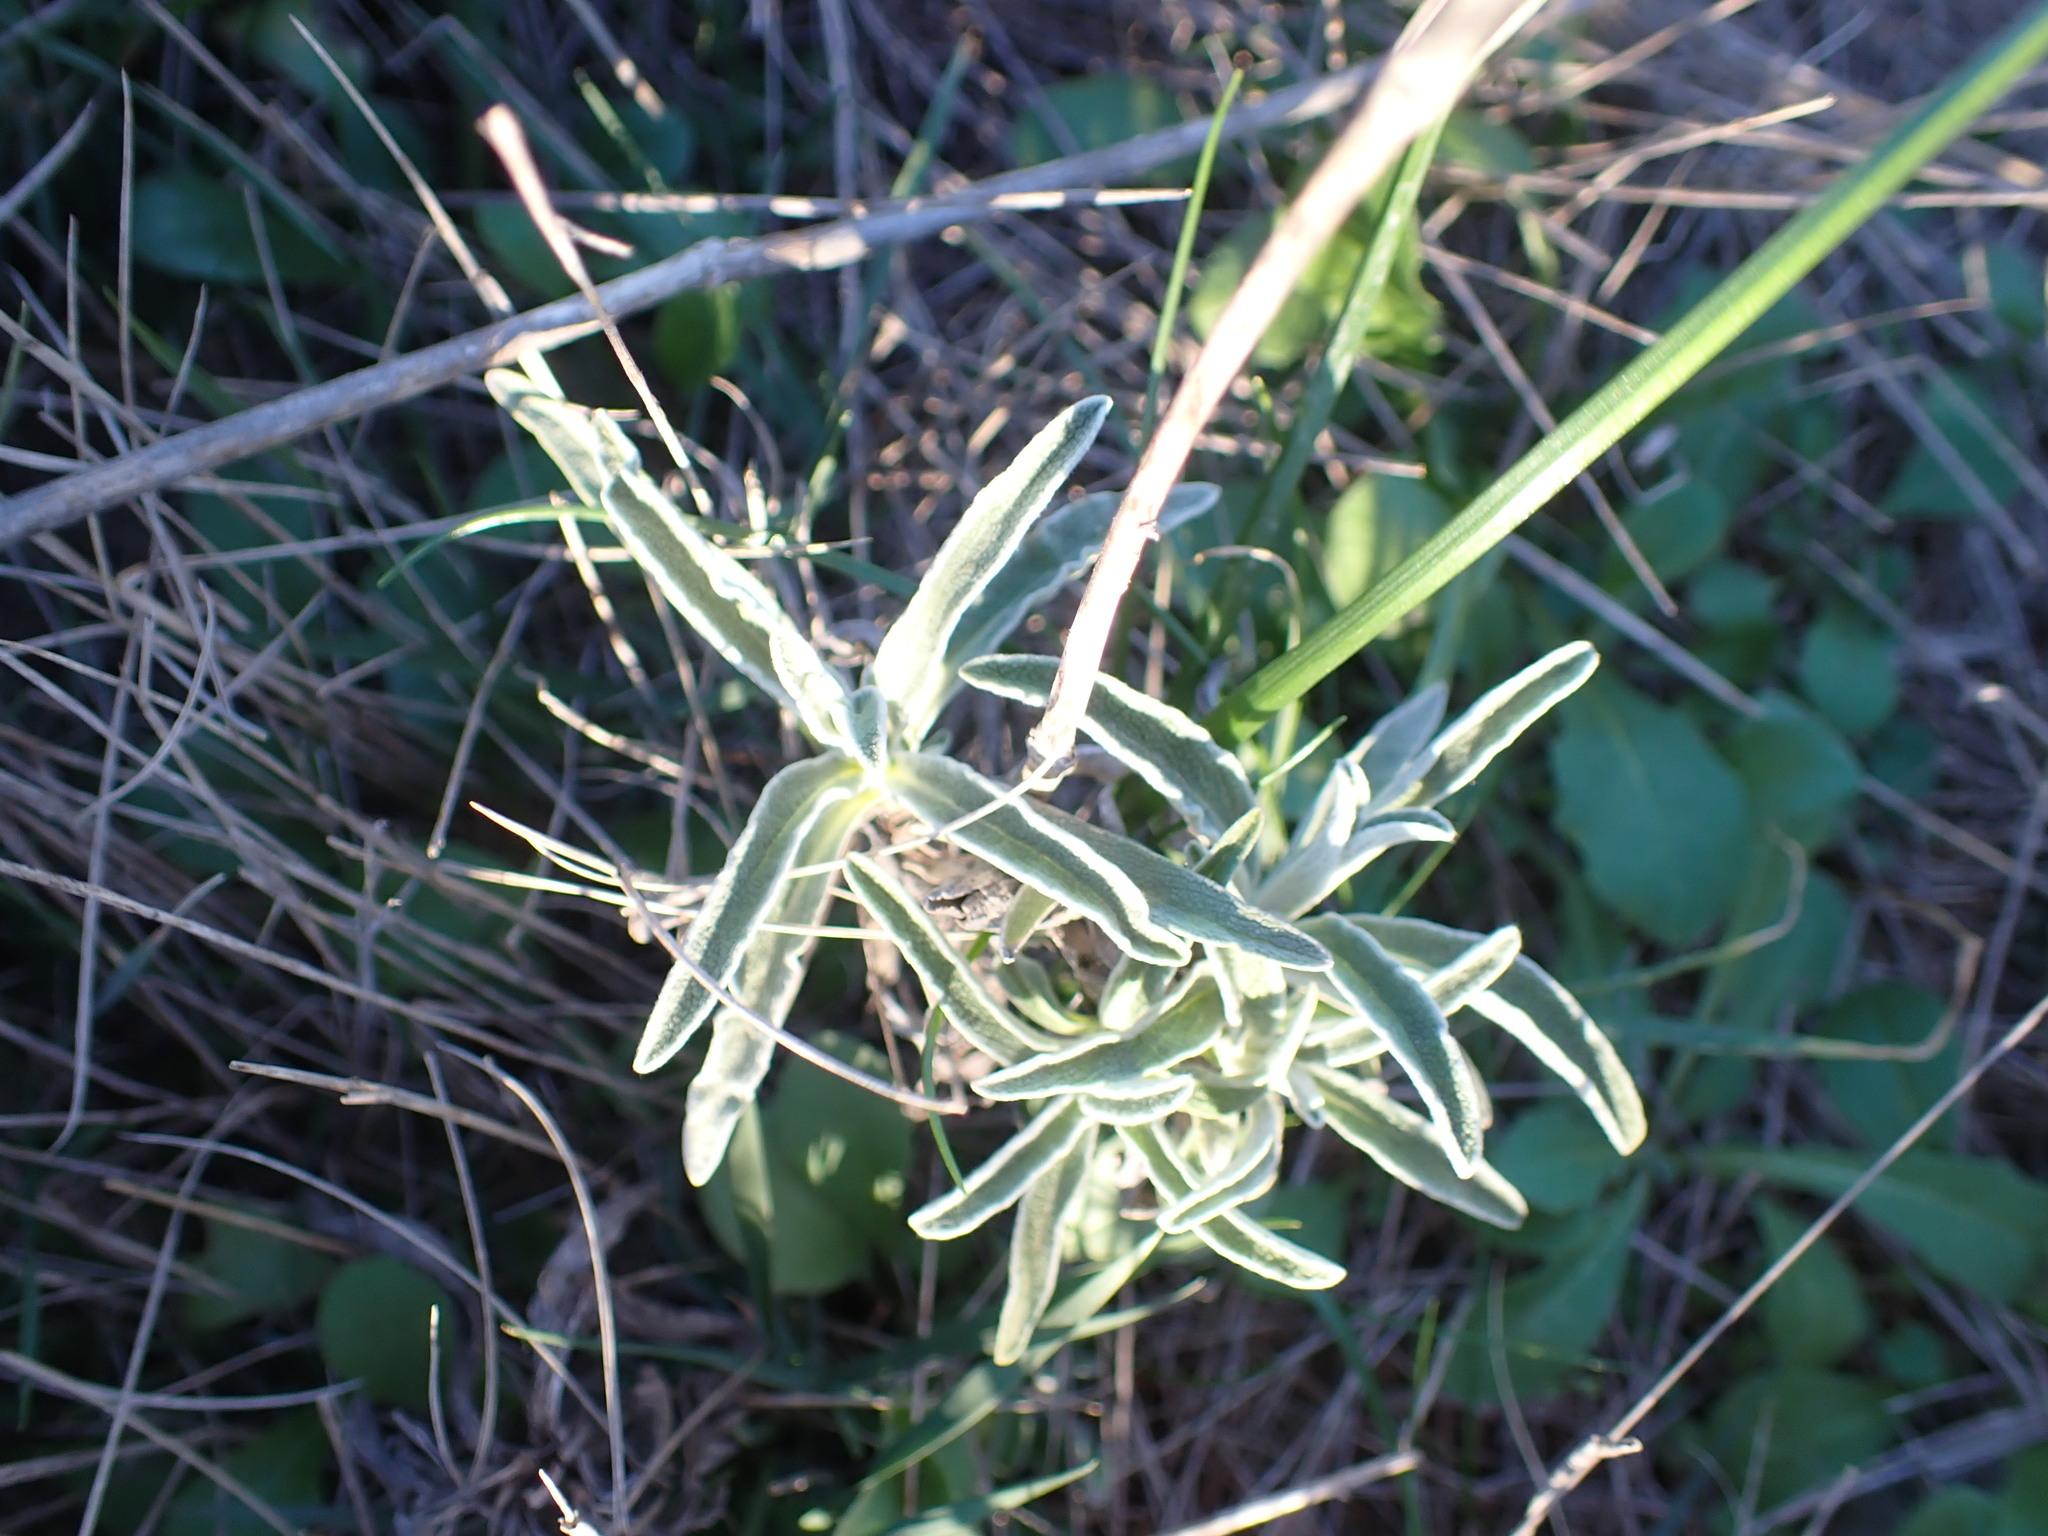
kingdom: Plantae
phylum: Tracheophyta
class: Magnoliopsida
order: Lamiales
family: Lamiaceae
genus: Phlomis
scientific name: Phlomis lychnitis
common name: Lampwickplant
